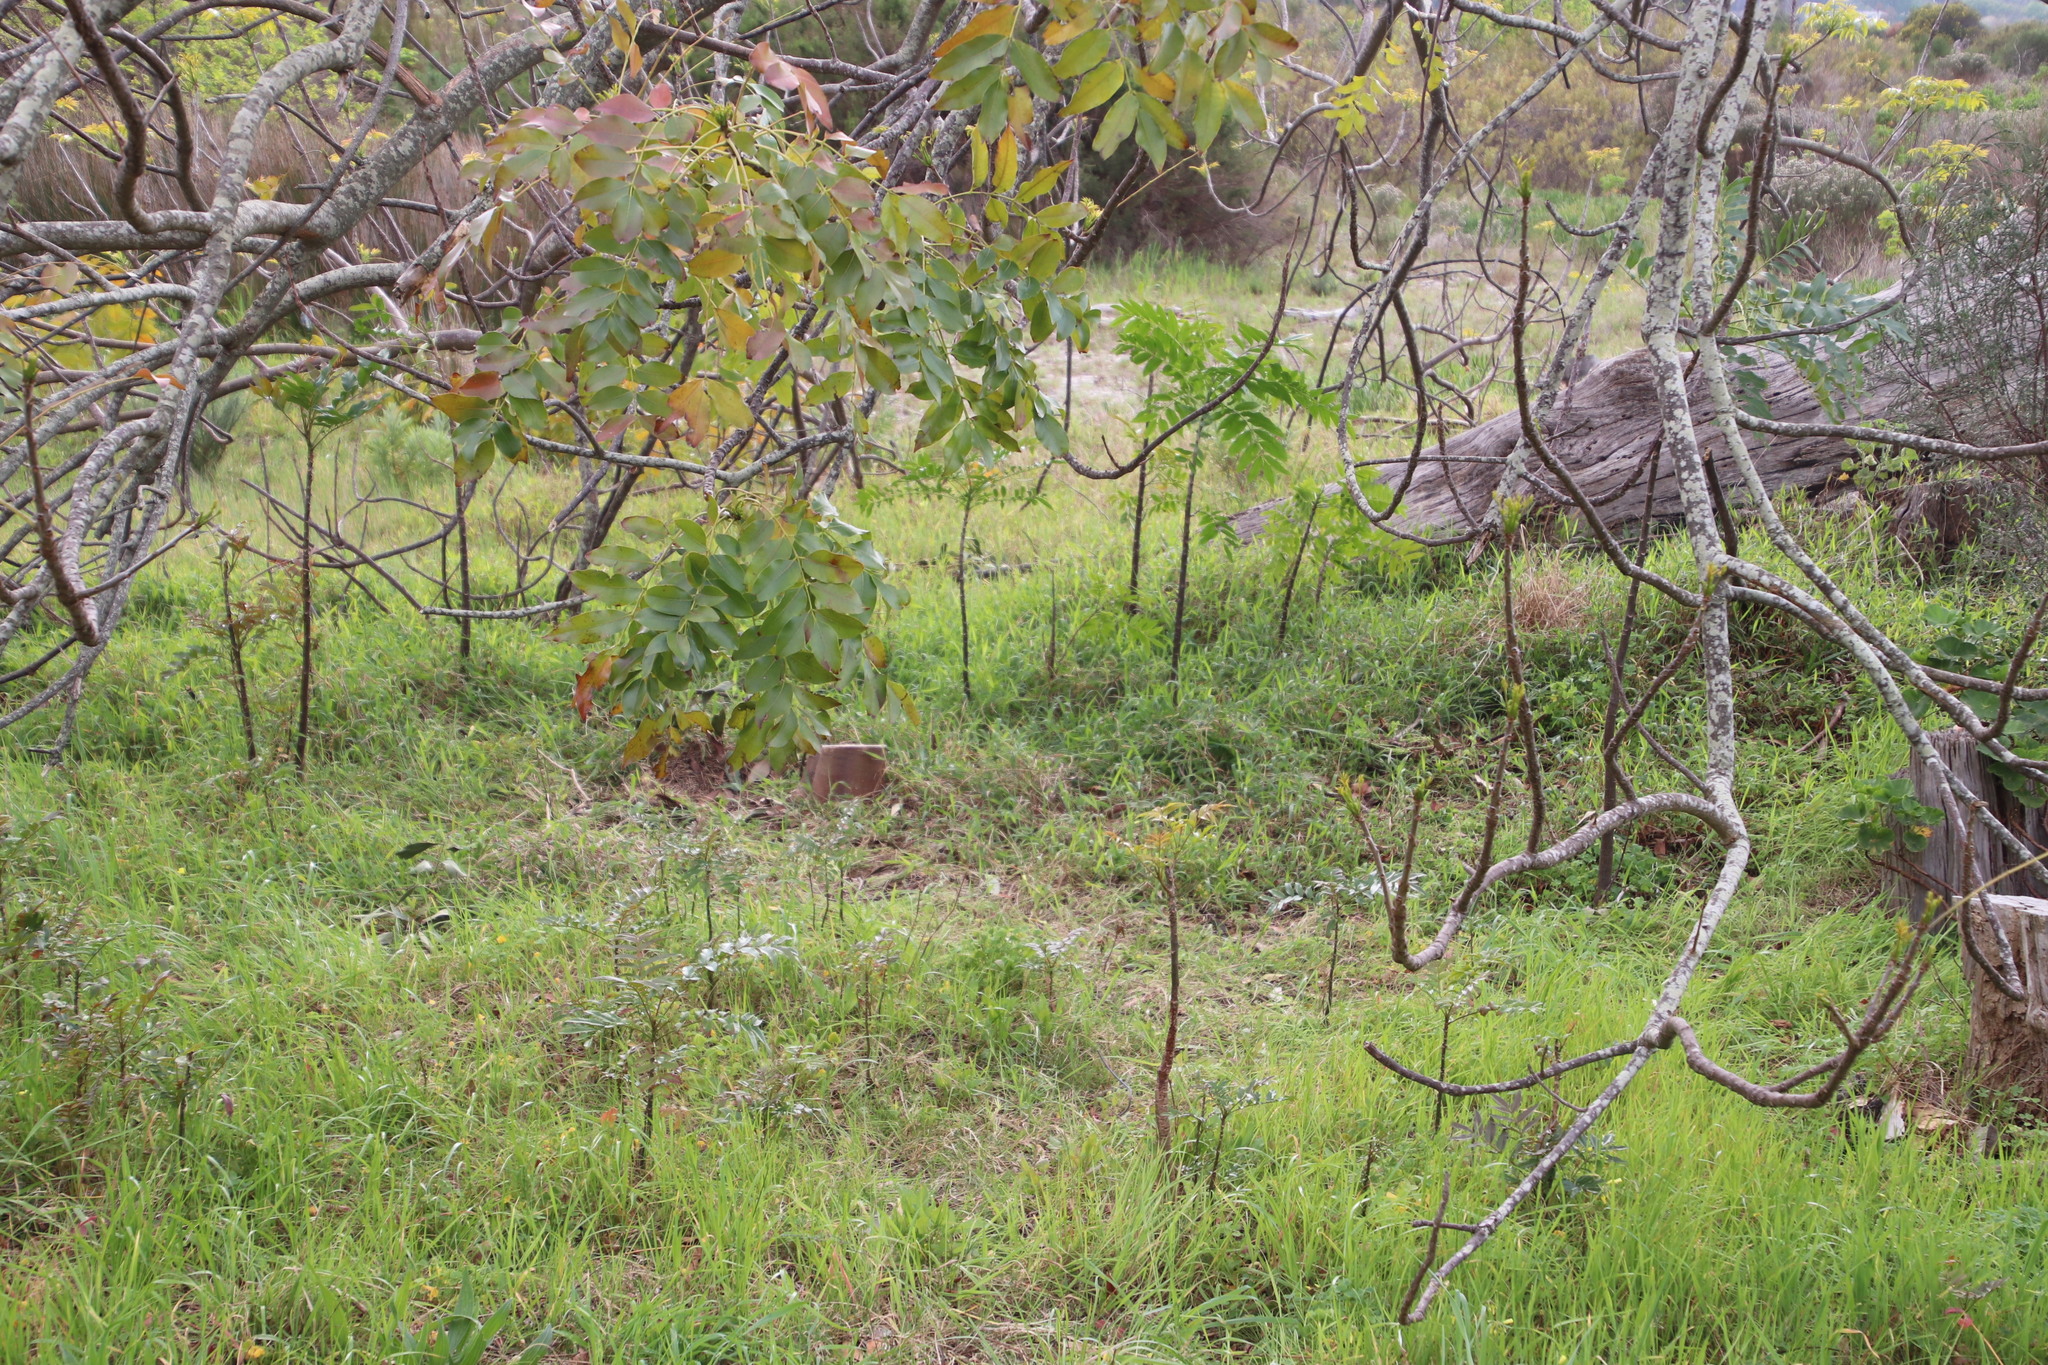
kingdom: Plantae
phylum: Tracheophyta
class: Magnoliopsida
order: Sapindales
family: Meliaceae
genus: Ekebergia
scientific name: Ekebergia capensis
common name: Cape-ash
